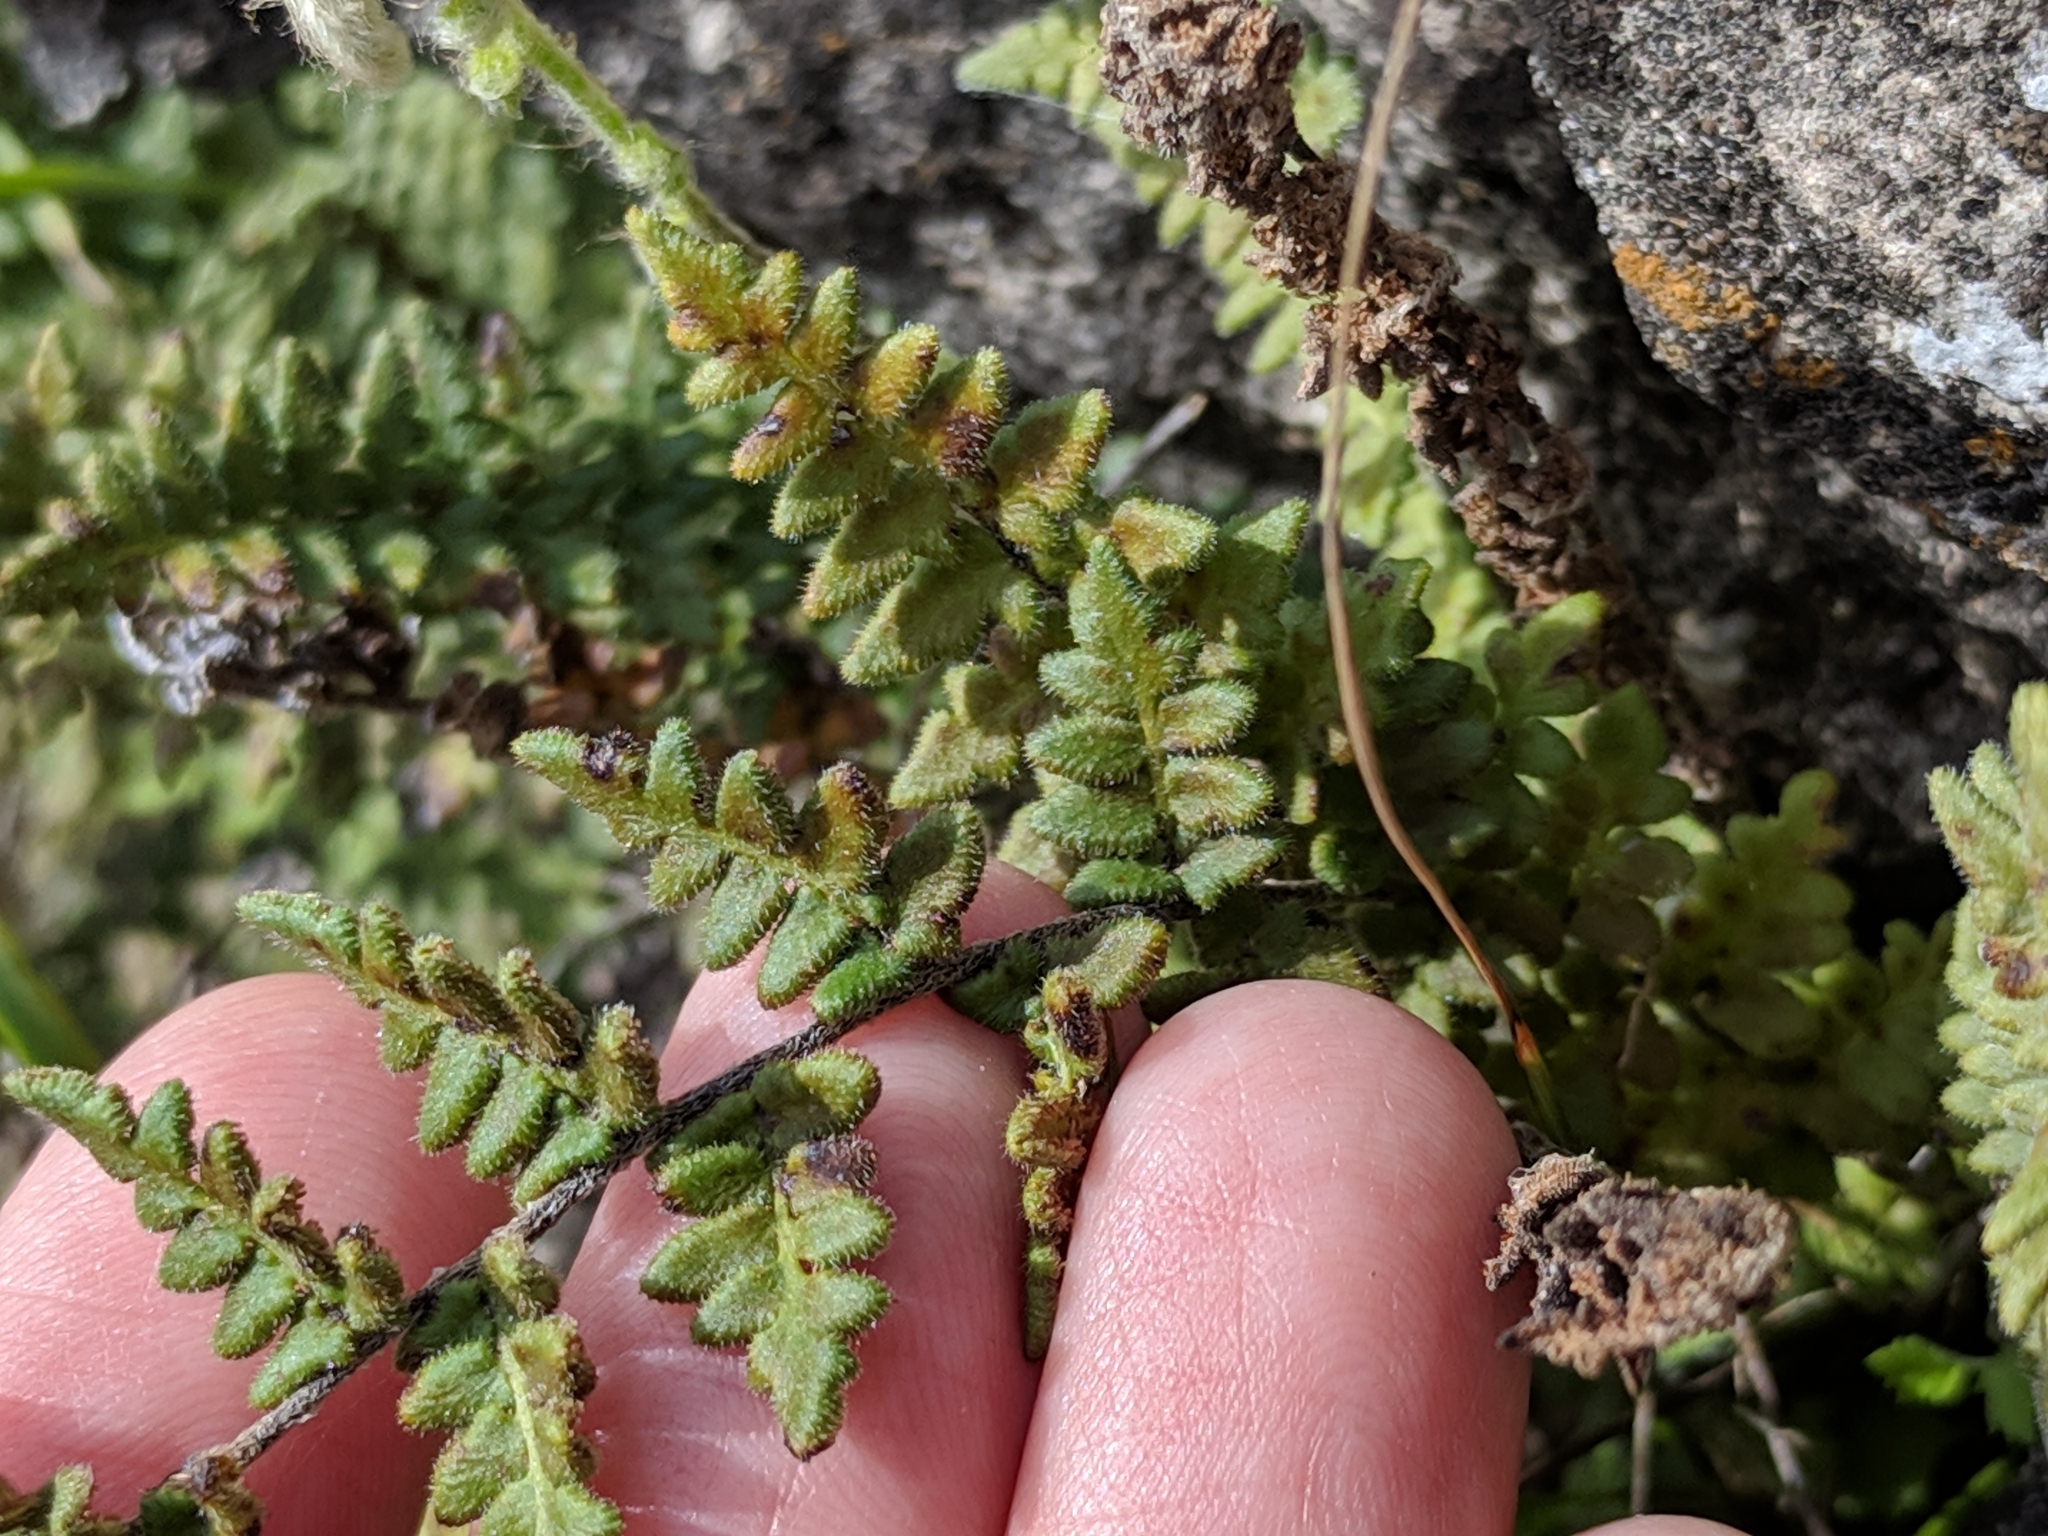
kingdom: Plantae
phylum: Tracheophyta
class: Polypodiopsida
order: Polypodiales
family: Pteridaceae
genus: Myriopteris
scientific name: Myriopteris scabra
